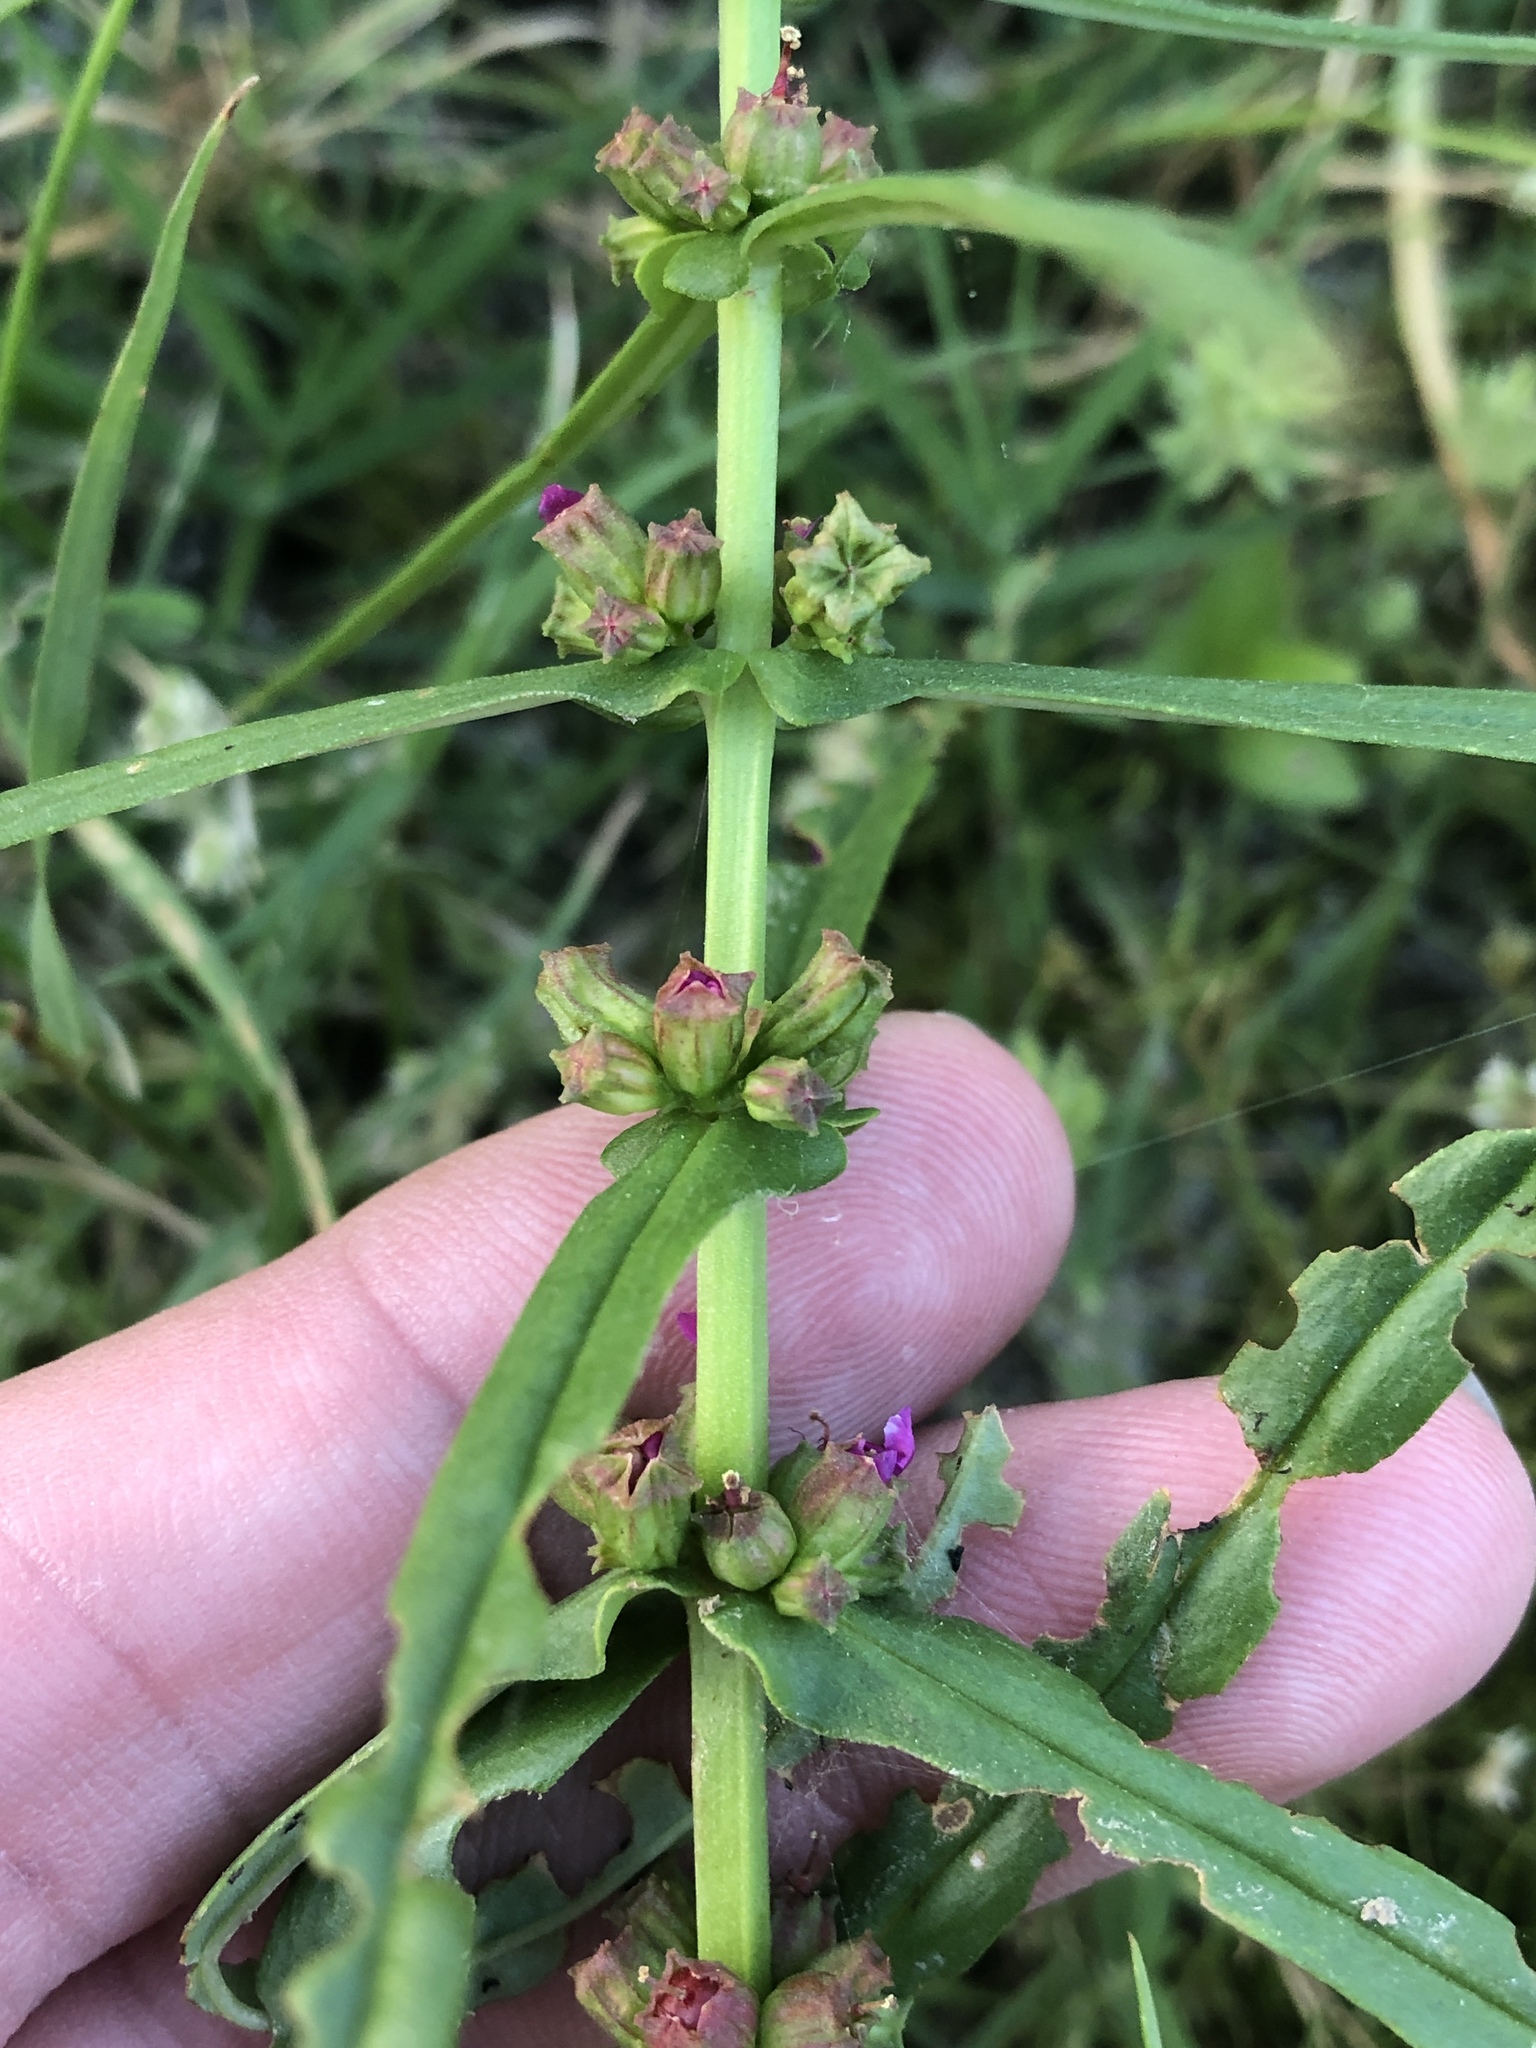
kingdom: Plantae
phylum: Tracheophyta
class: Magnoliopsida
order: Myrtales
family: Lythraceae
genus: Ammannia
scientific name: Ammannia coccinea
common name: Valley redstem
